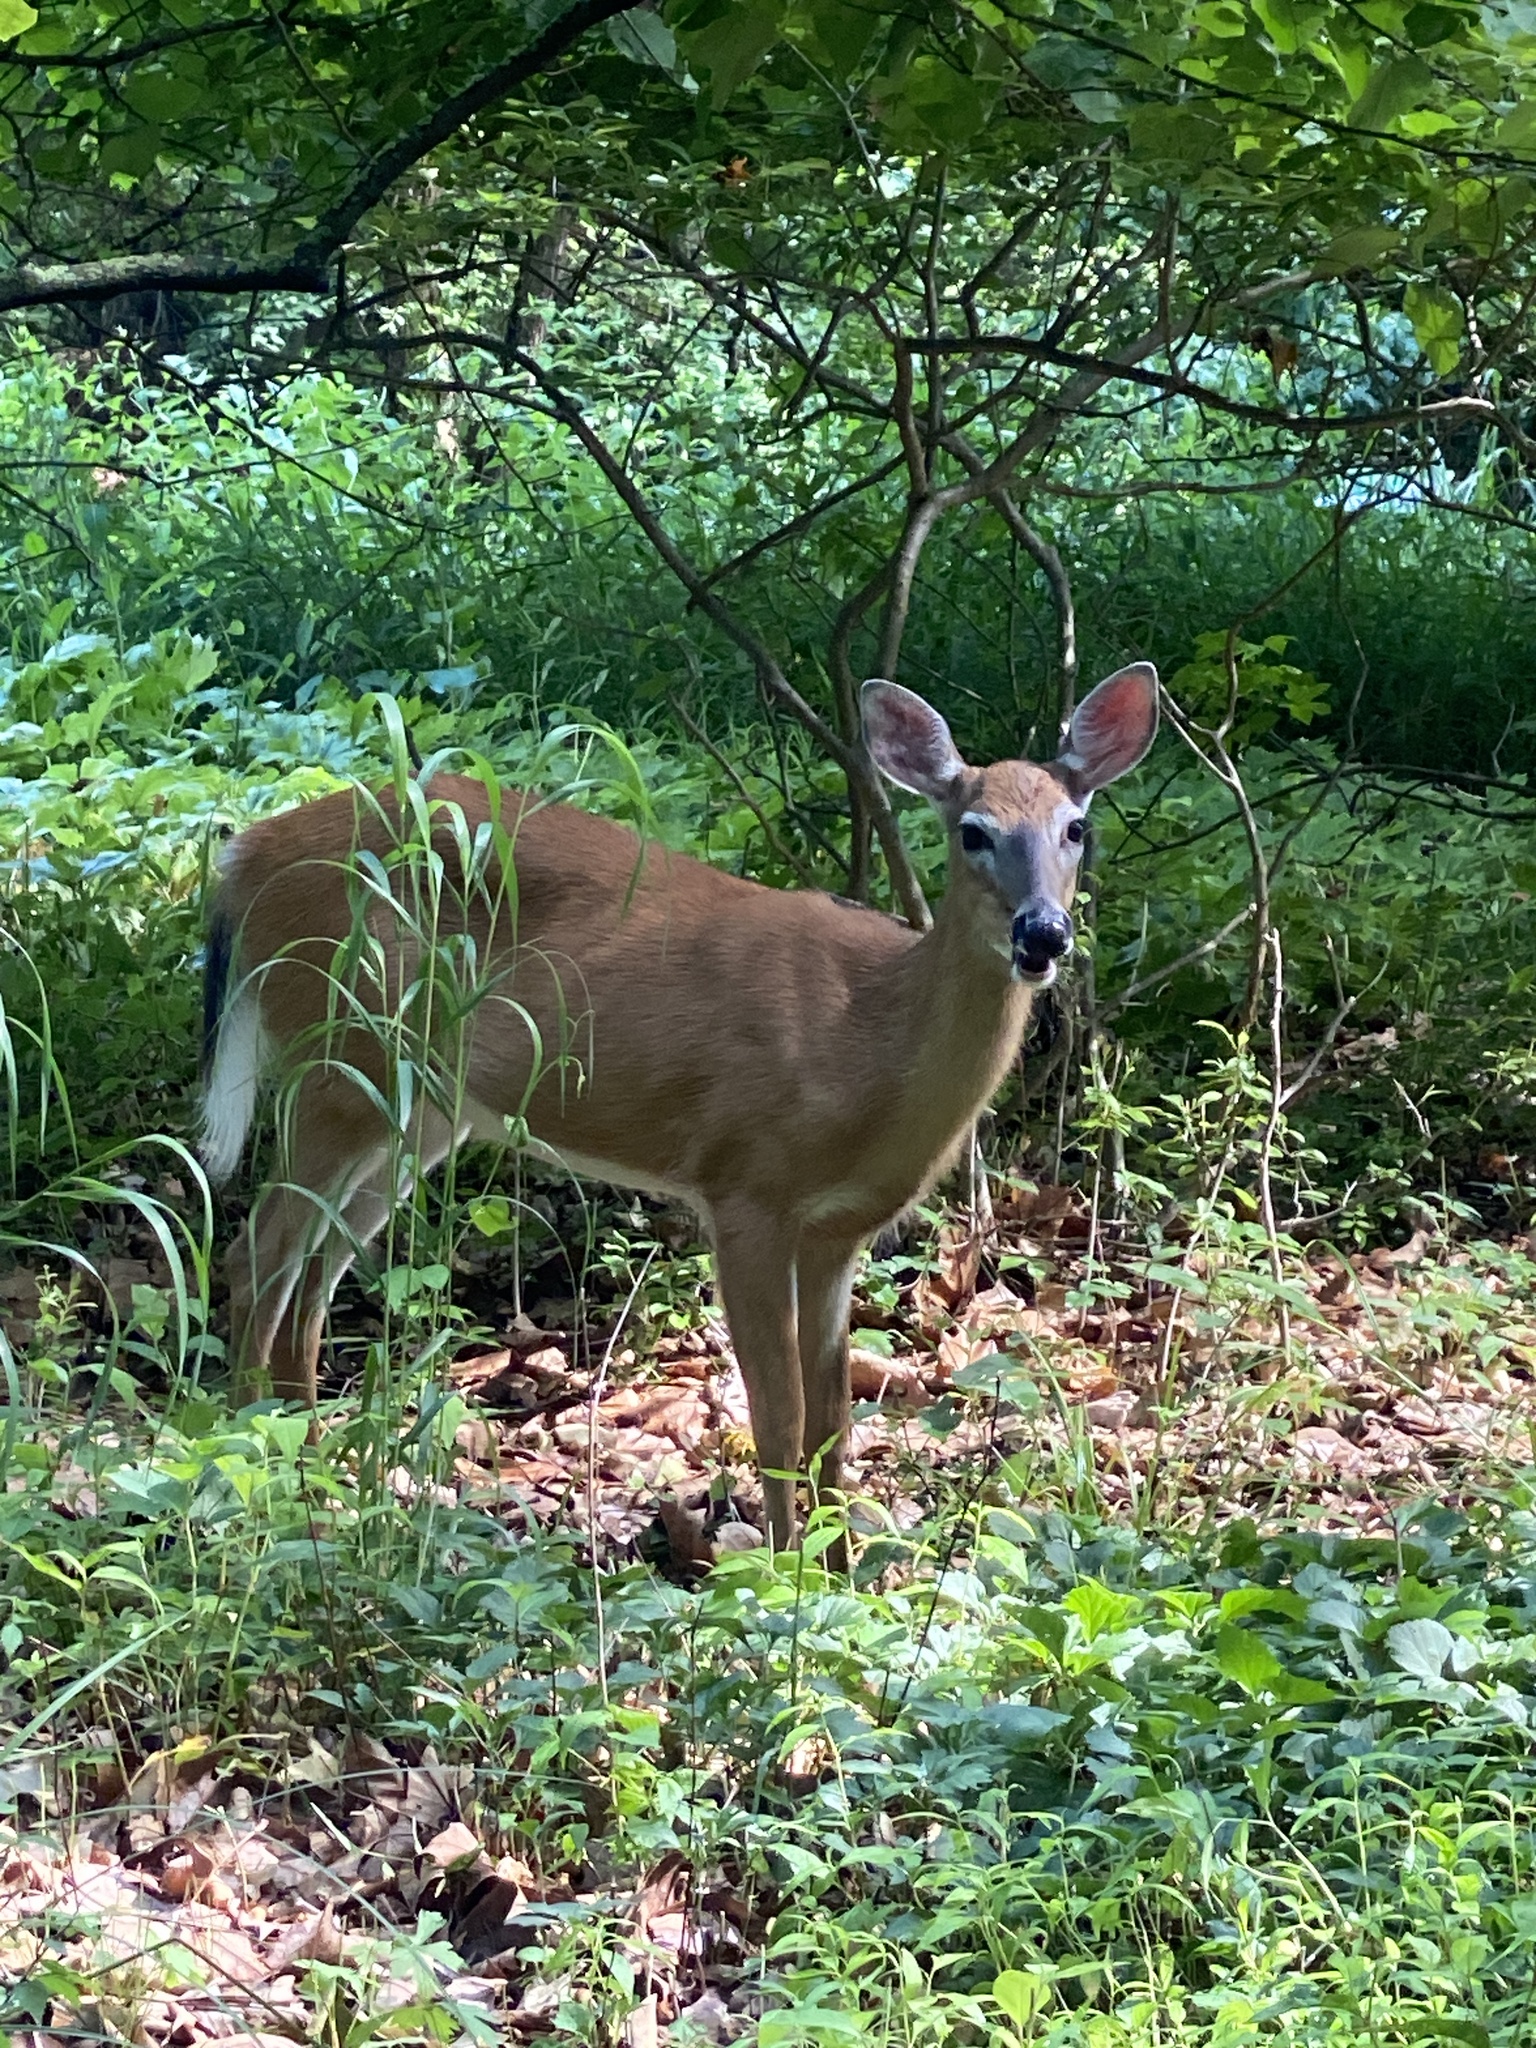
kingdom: Animalia
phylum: Chordata
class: Mammalia
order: Artiodactyla
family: Cervidae
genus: Odocoileus
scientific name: Odocoileus virginianus
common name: White-tailed deer
